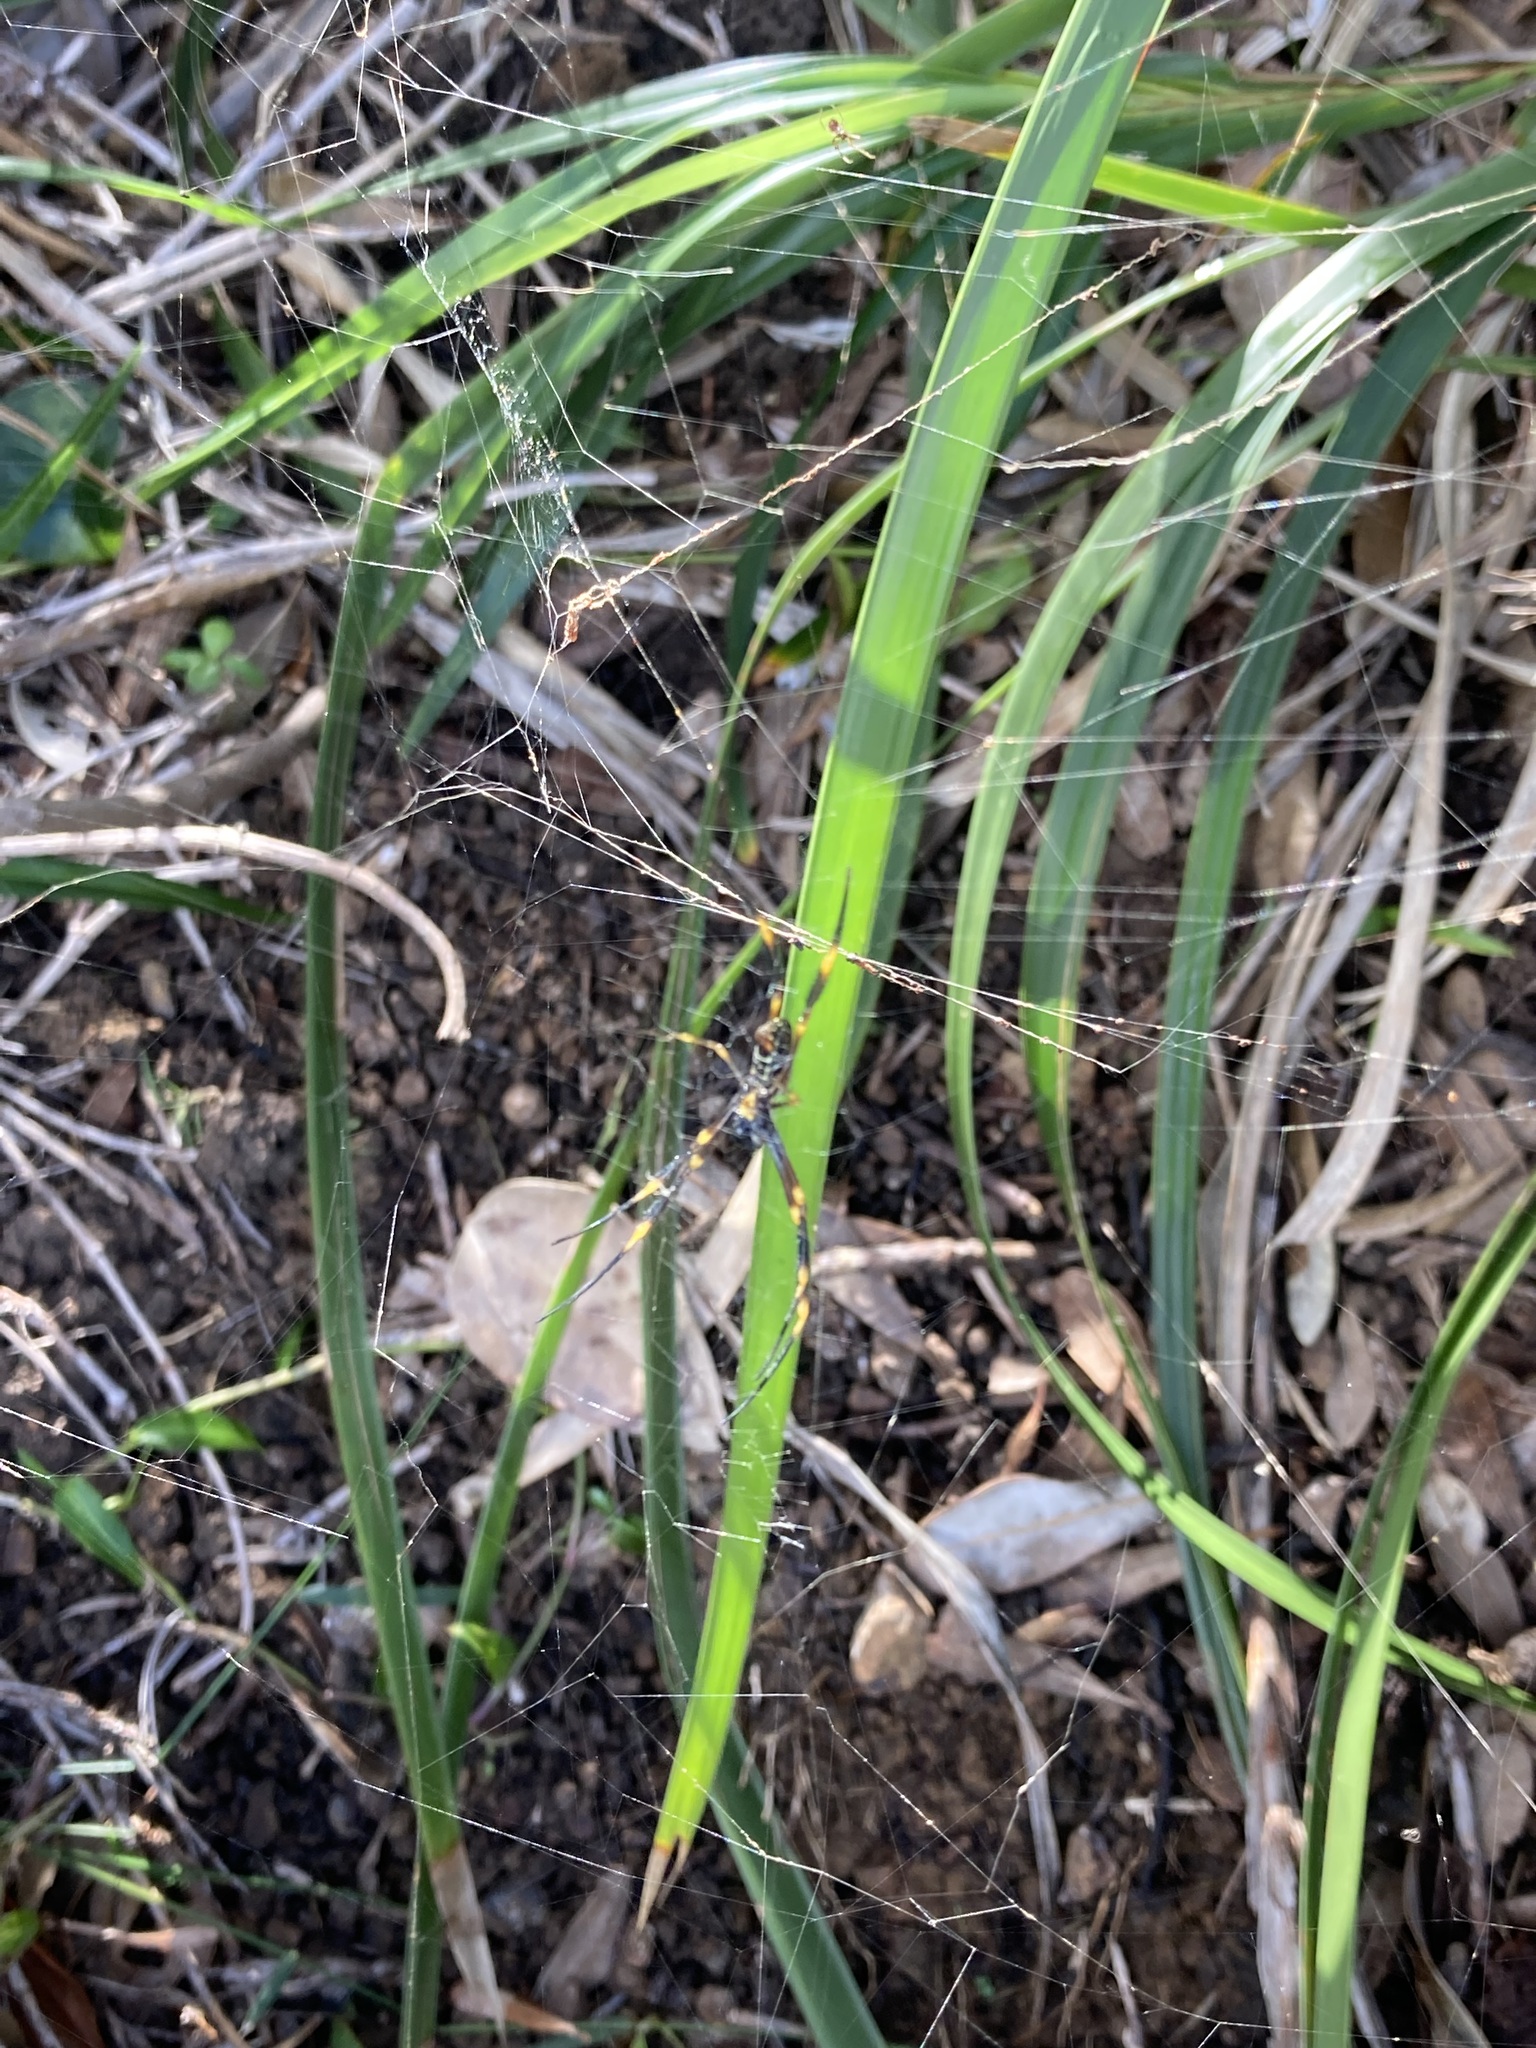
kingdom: Animalia
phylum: Arthropoda
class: Arachnida
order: Araneae
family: Araneidae
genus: Trichonephila
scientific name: Trichonephila plumipes
